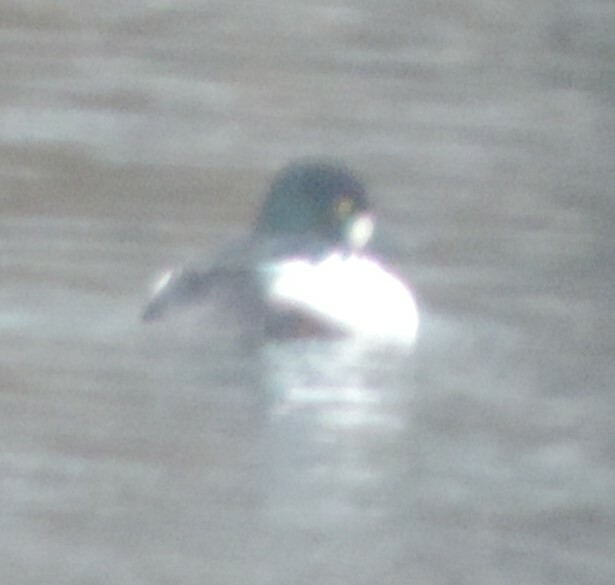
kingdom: Animalia
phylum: Chordata
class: Aves
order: Anseriformes
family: Anatidae
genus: Bucephala
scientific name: Bucephala clangula
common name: Common goldeneye
